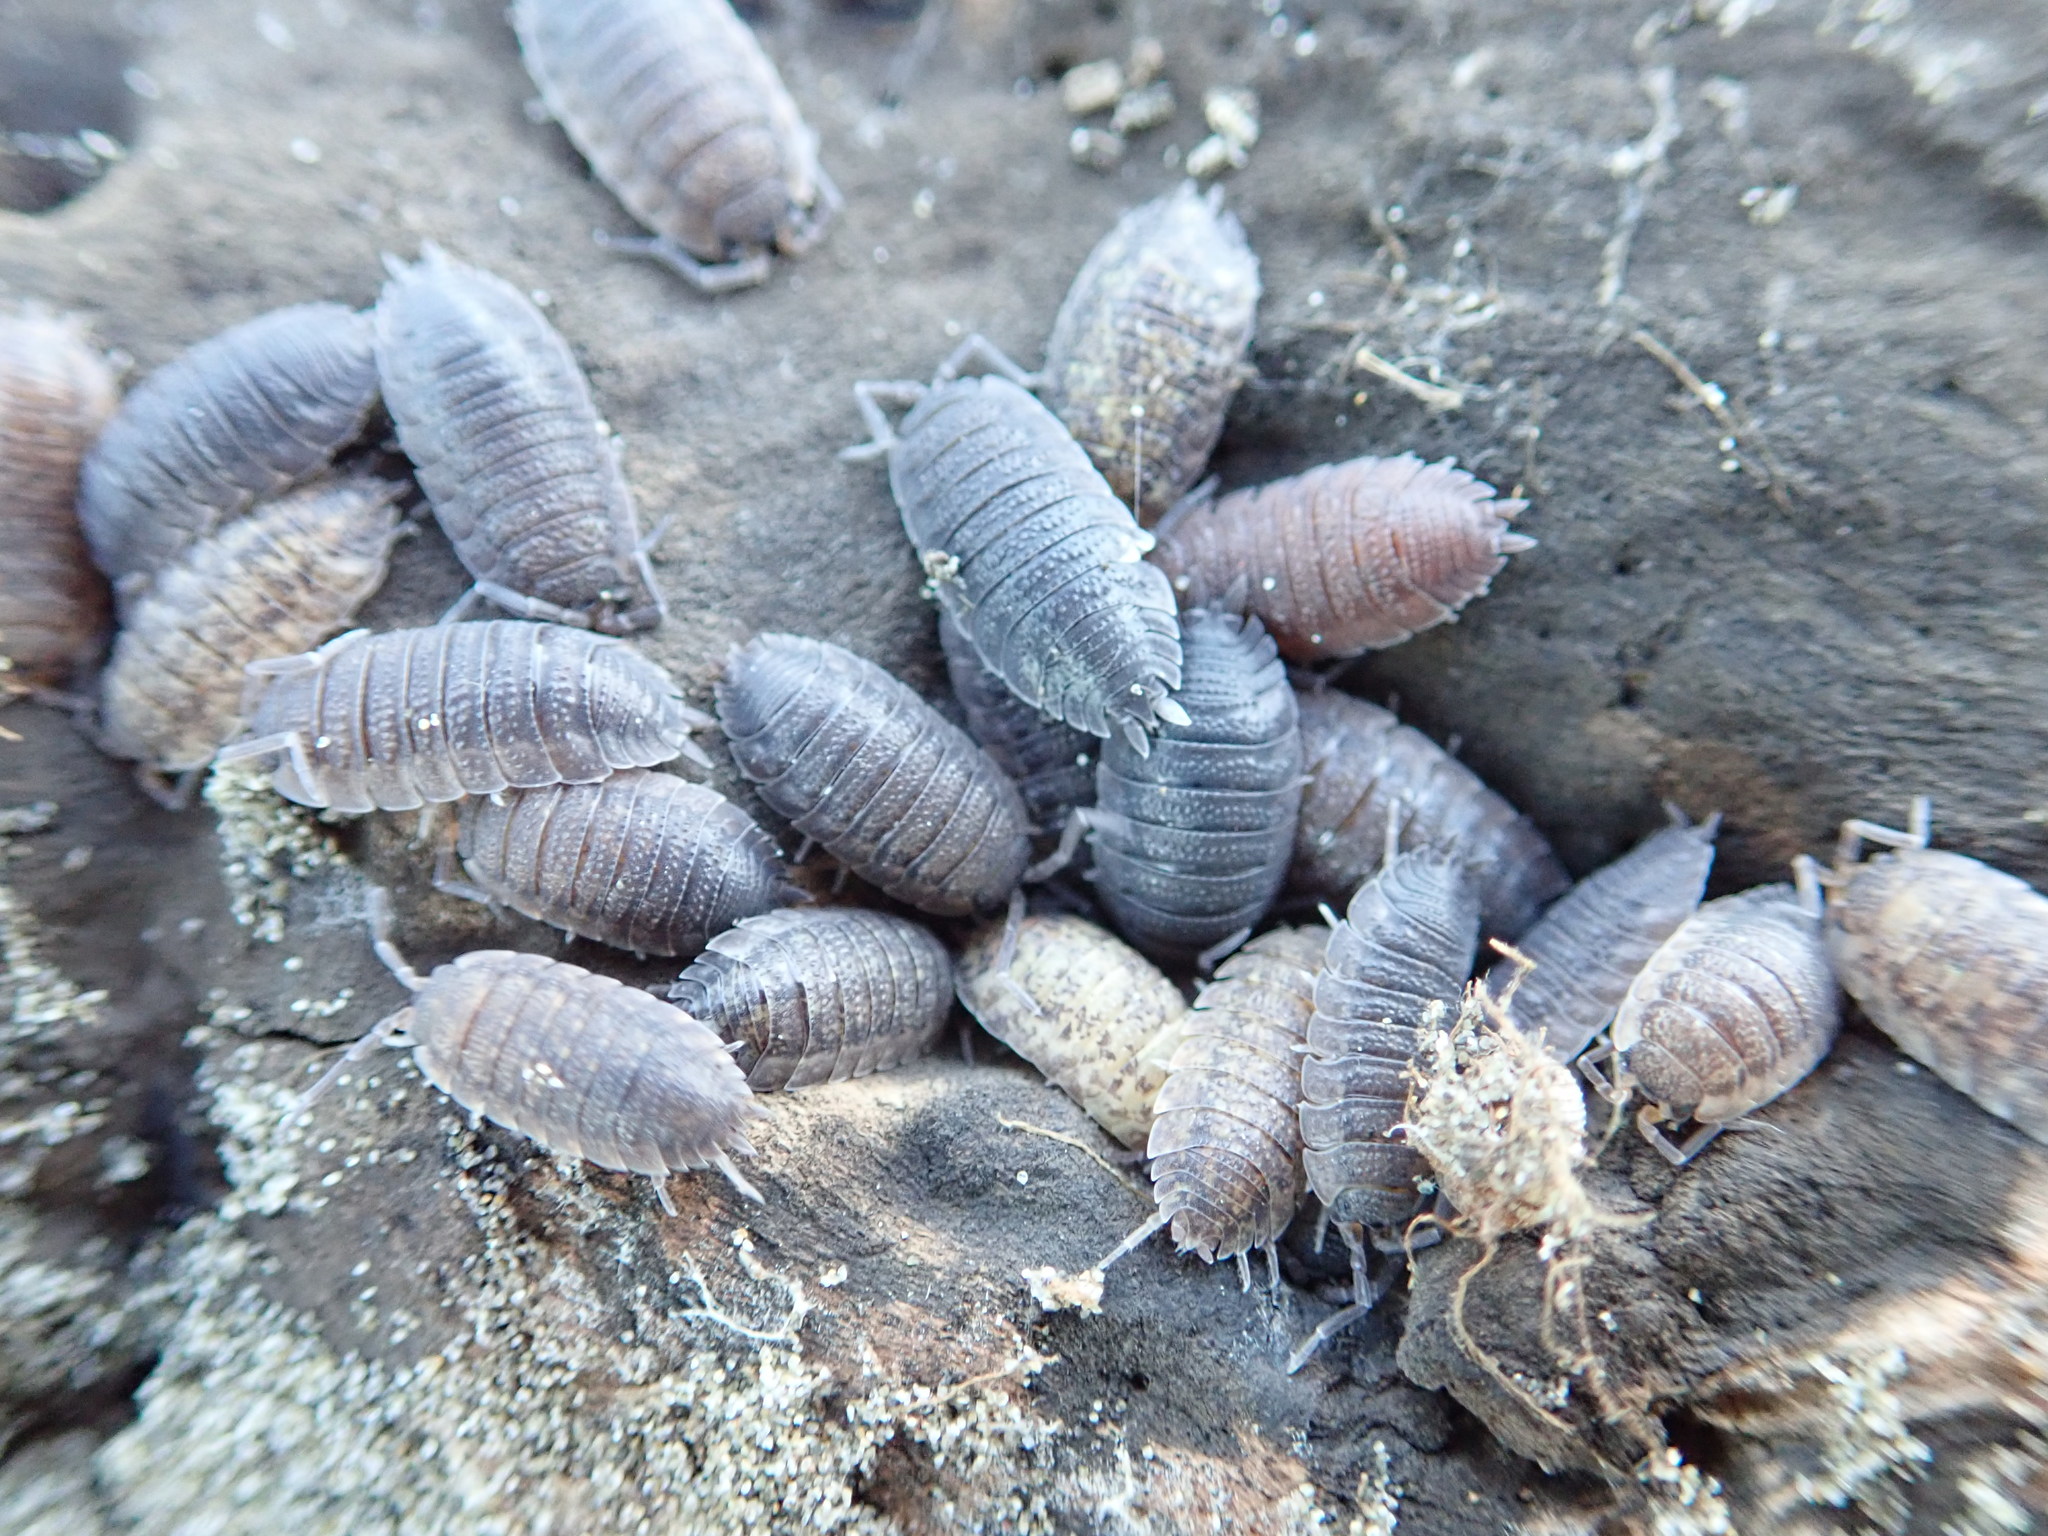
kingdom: Animalia
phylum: Arthropoda
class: Malacostraca
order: Isopoda
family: Porcellionidae
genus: Porcellio
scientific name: Porcellio scaber
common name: Common rough woodlouse
